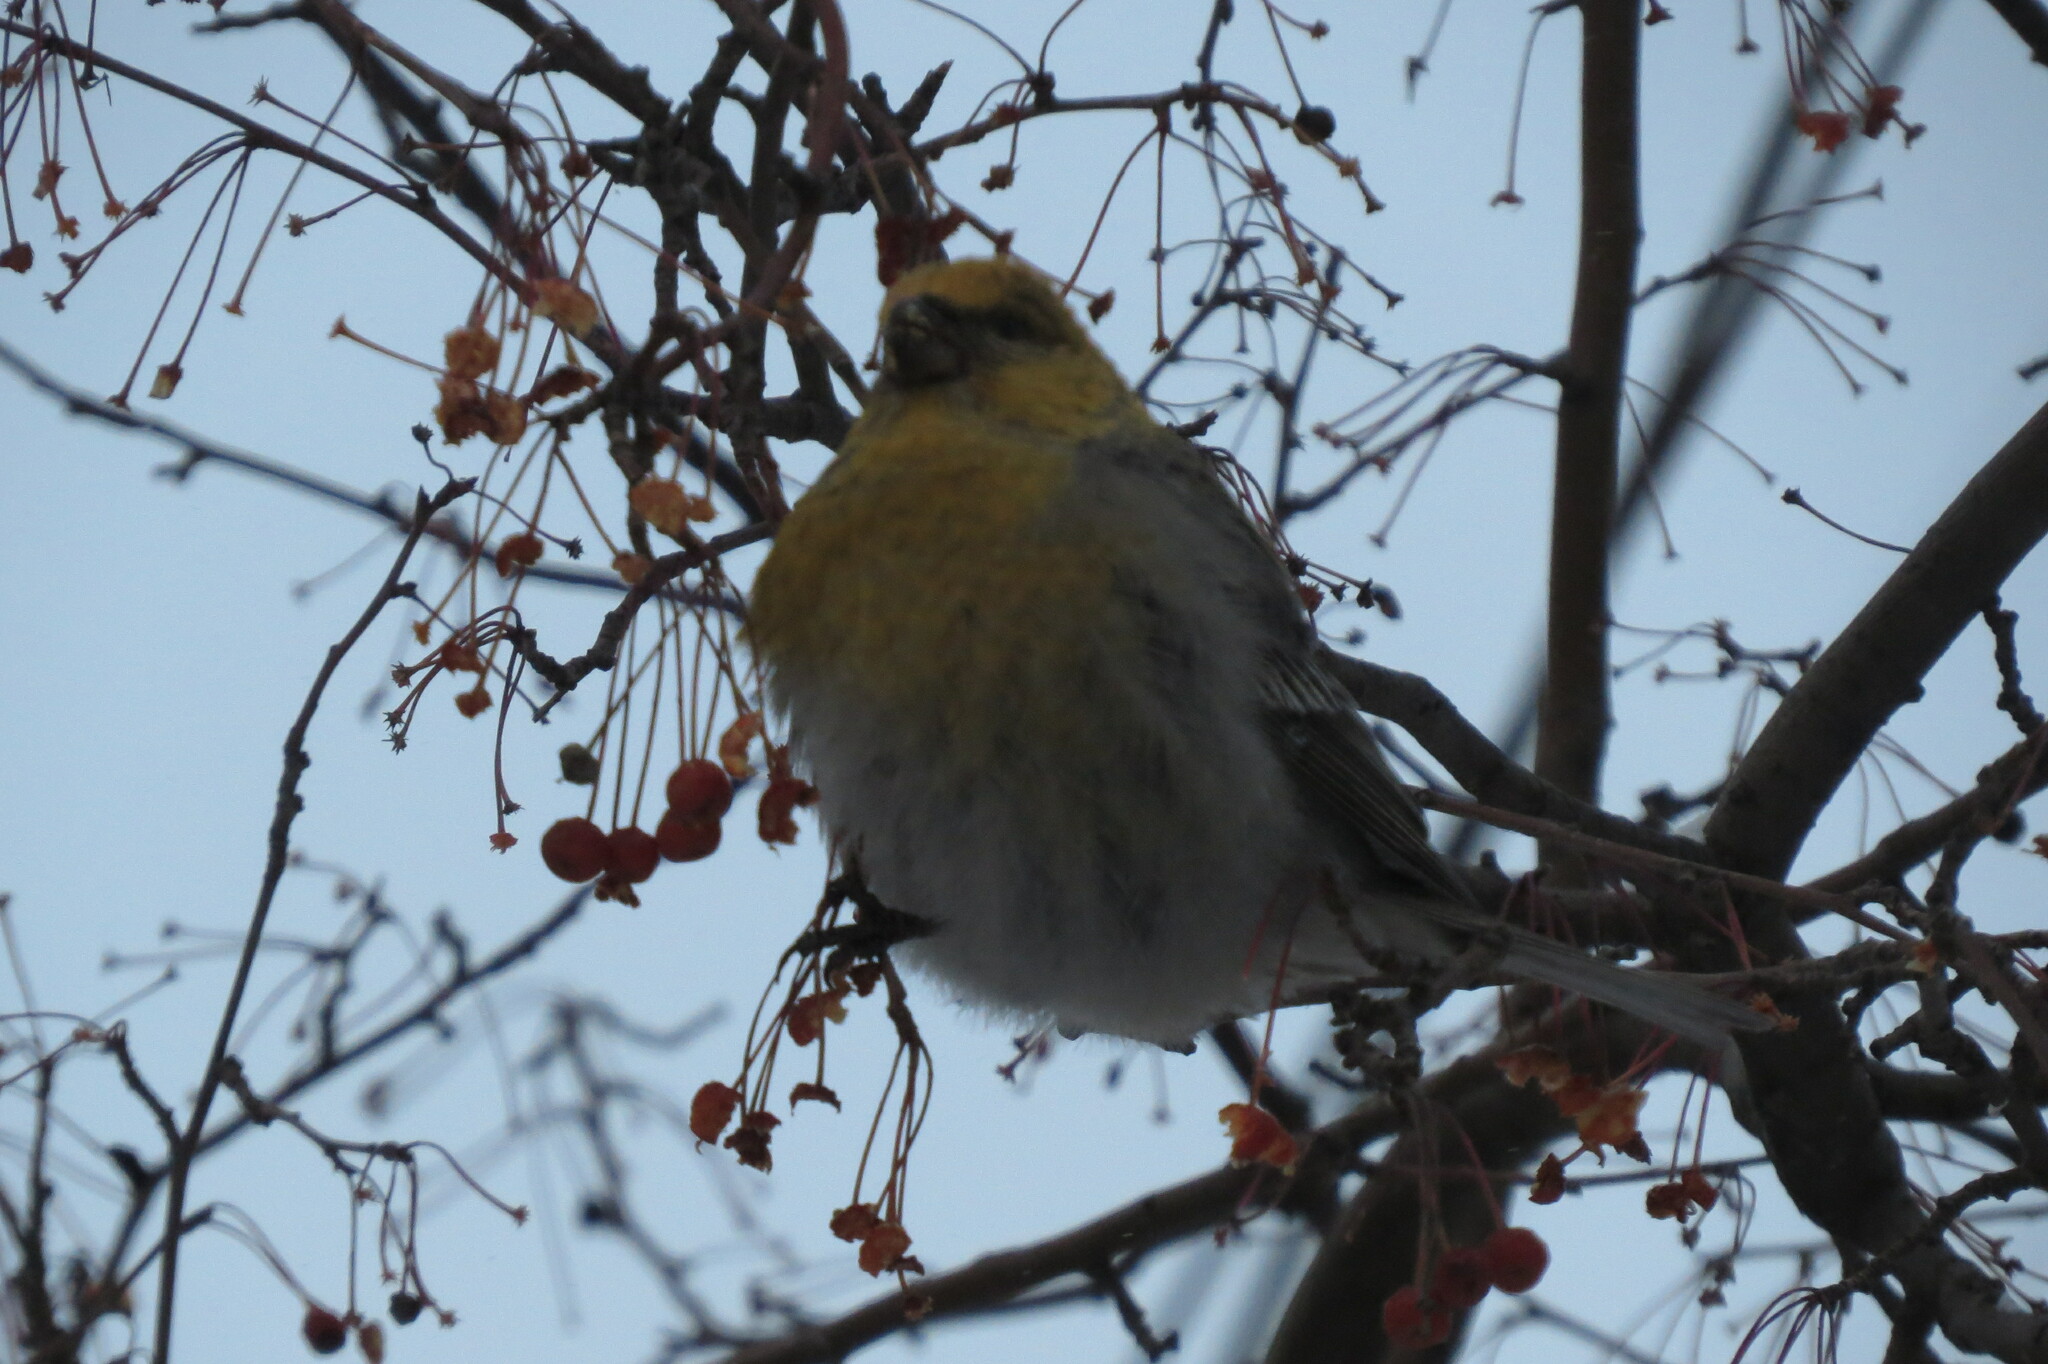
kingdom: Animalia
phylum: Chordata
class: Aves
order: Passeriformes
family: Fringillidae
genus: Pinicola
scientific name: Pinicola enucleator
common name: Pine grosbeak
